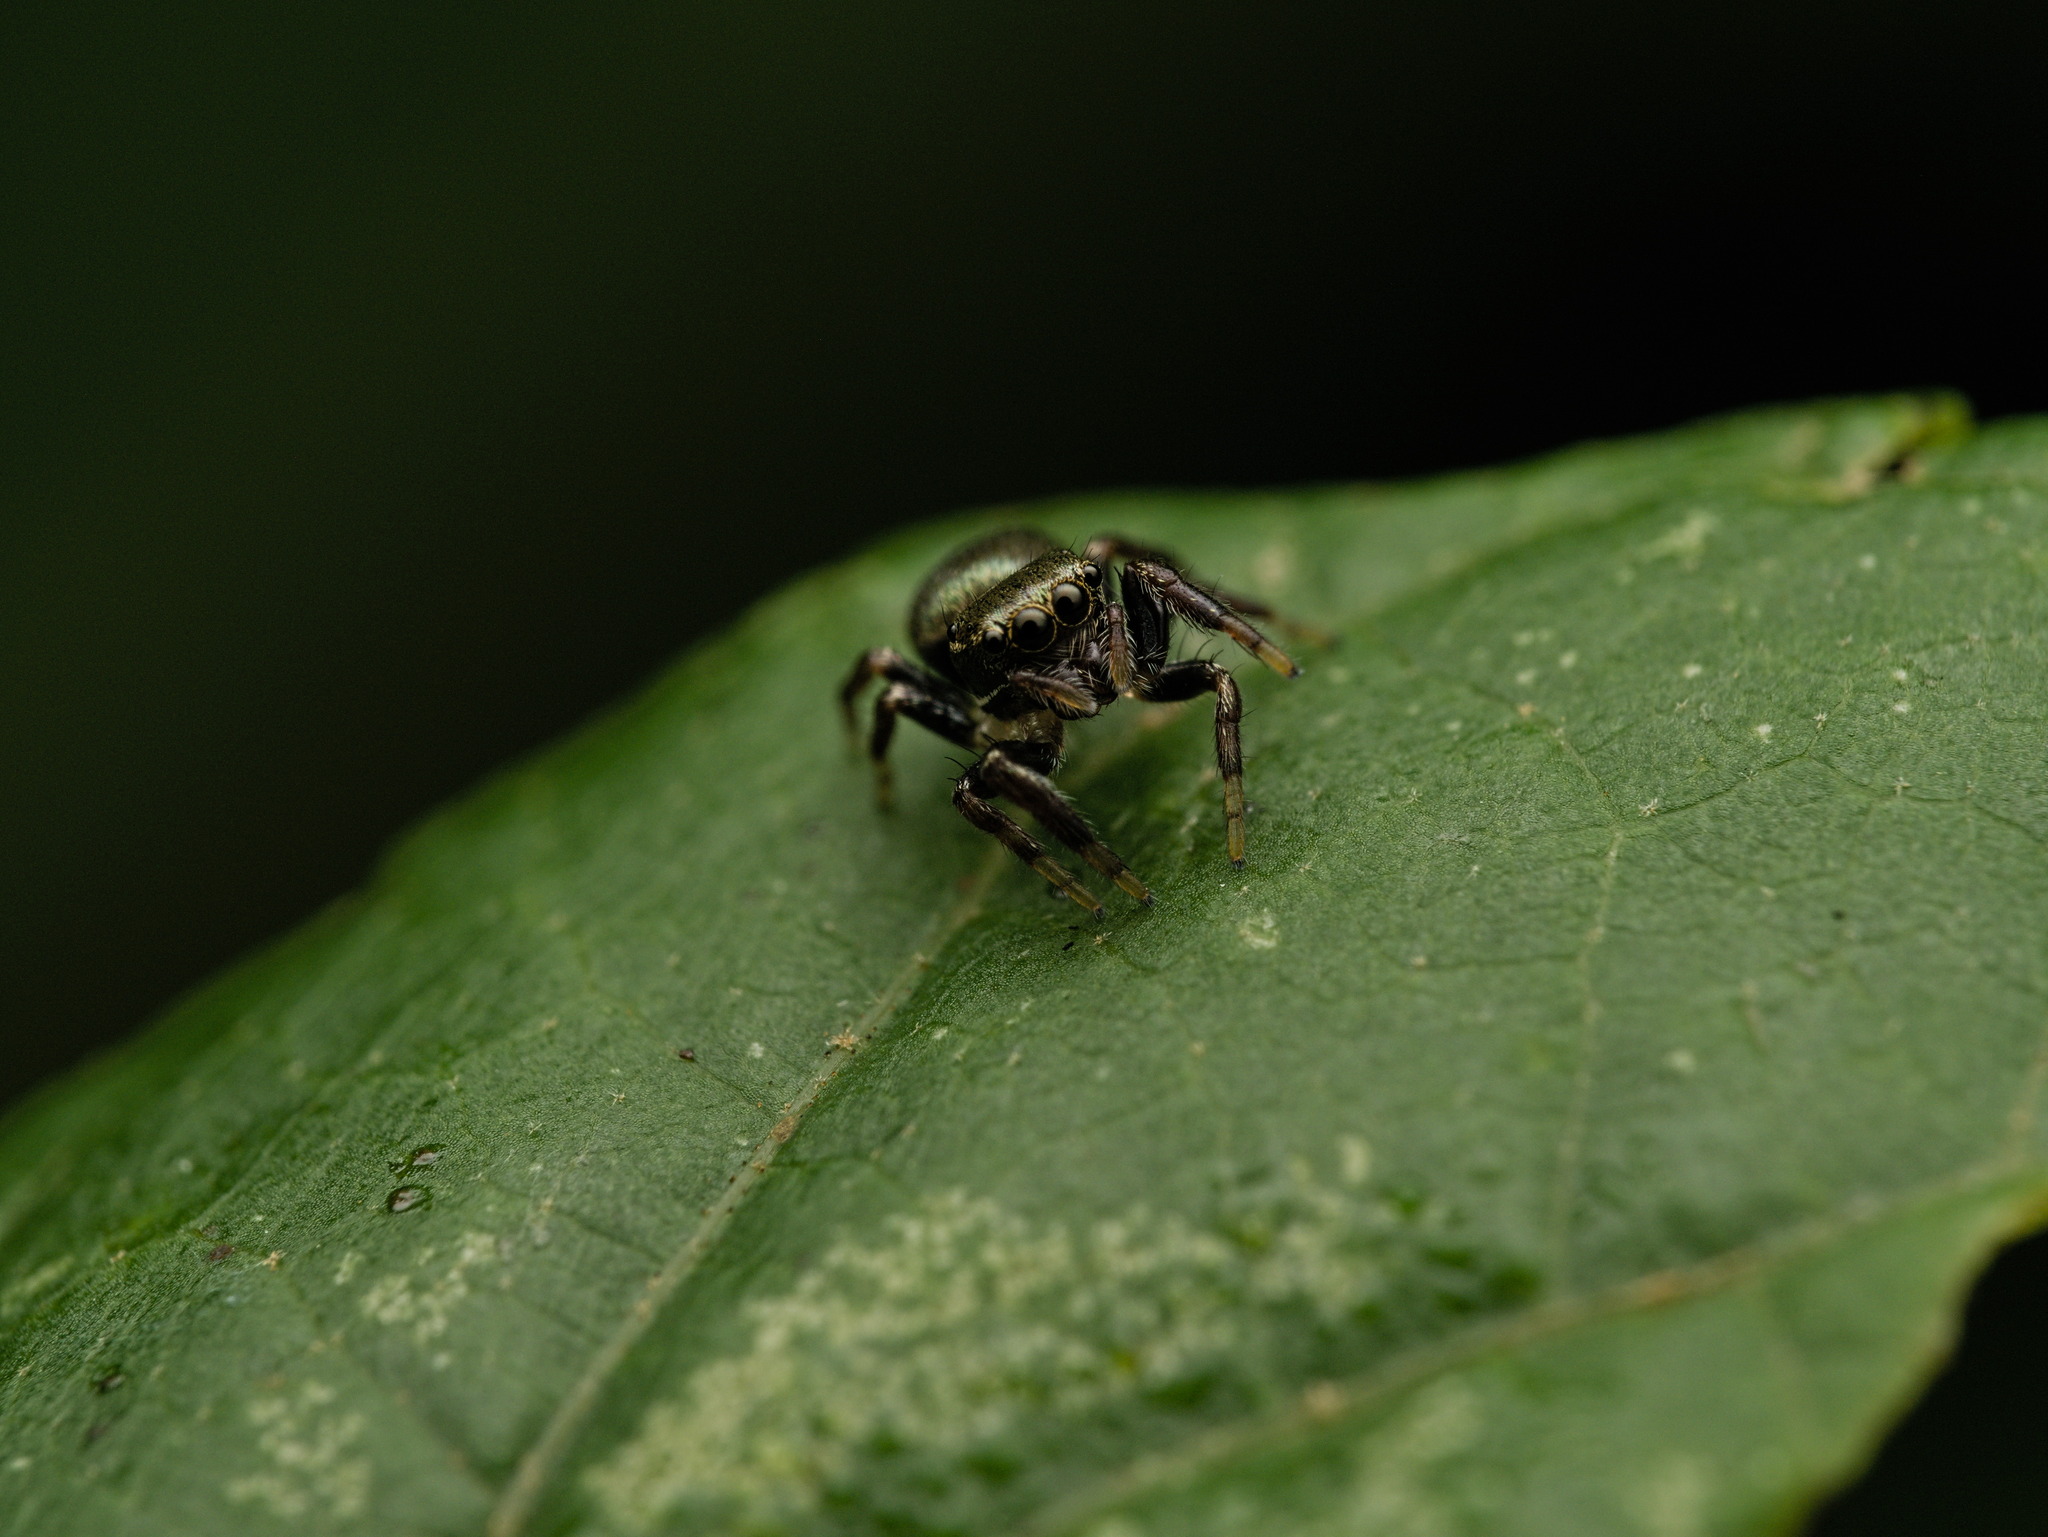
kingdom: Animalia
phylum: Arthropoda
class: Arachnida
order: Araneae
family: Salticidae
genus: Messua
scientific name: Messua limbata
